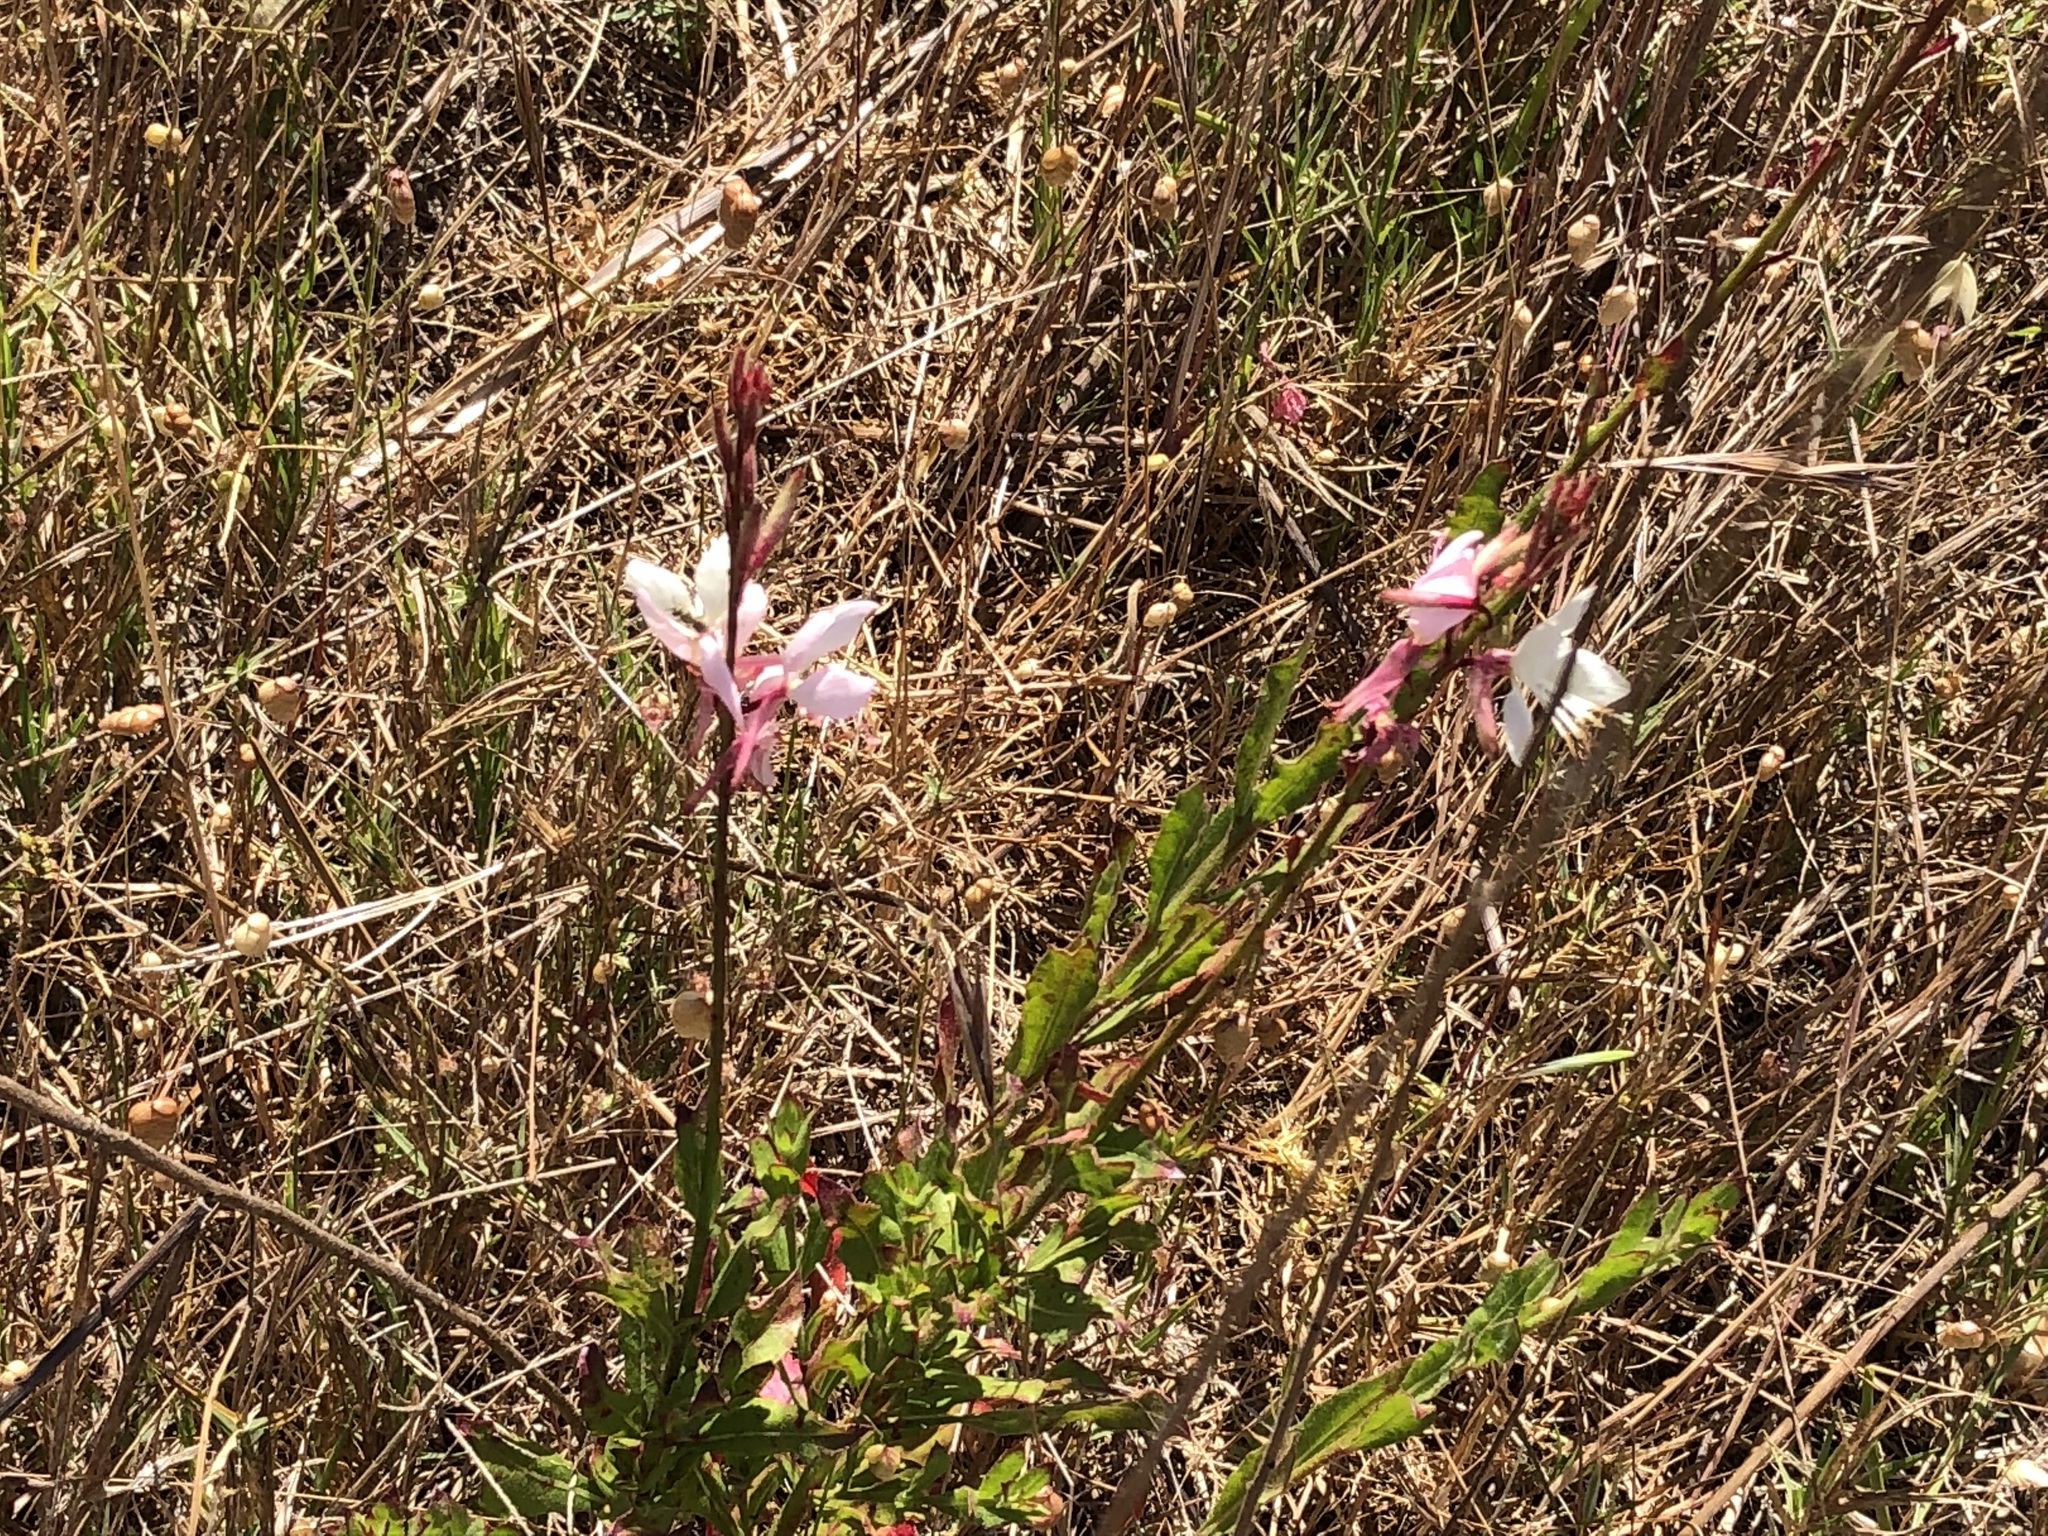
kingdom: Plantae
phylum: Tracheophyta
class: Magnoliopsida
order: Myrtales
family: Onagraceae
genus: Oenothera
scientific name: Oenothera lindheimeri
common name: Lindheimer's beeblossom
